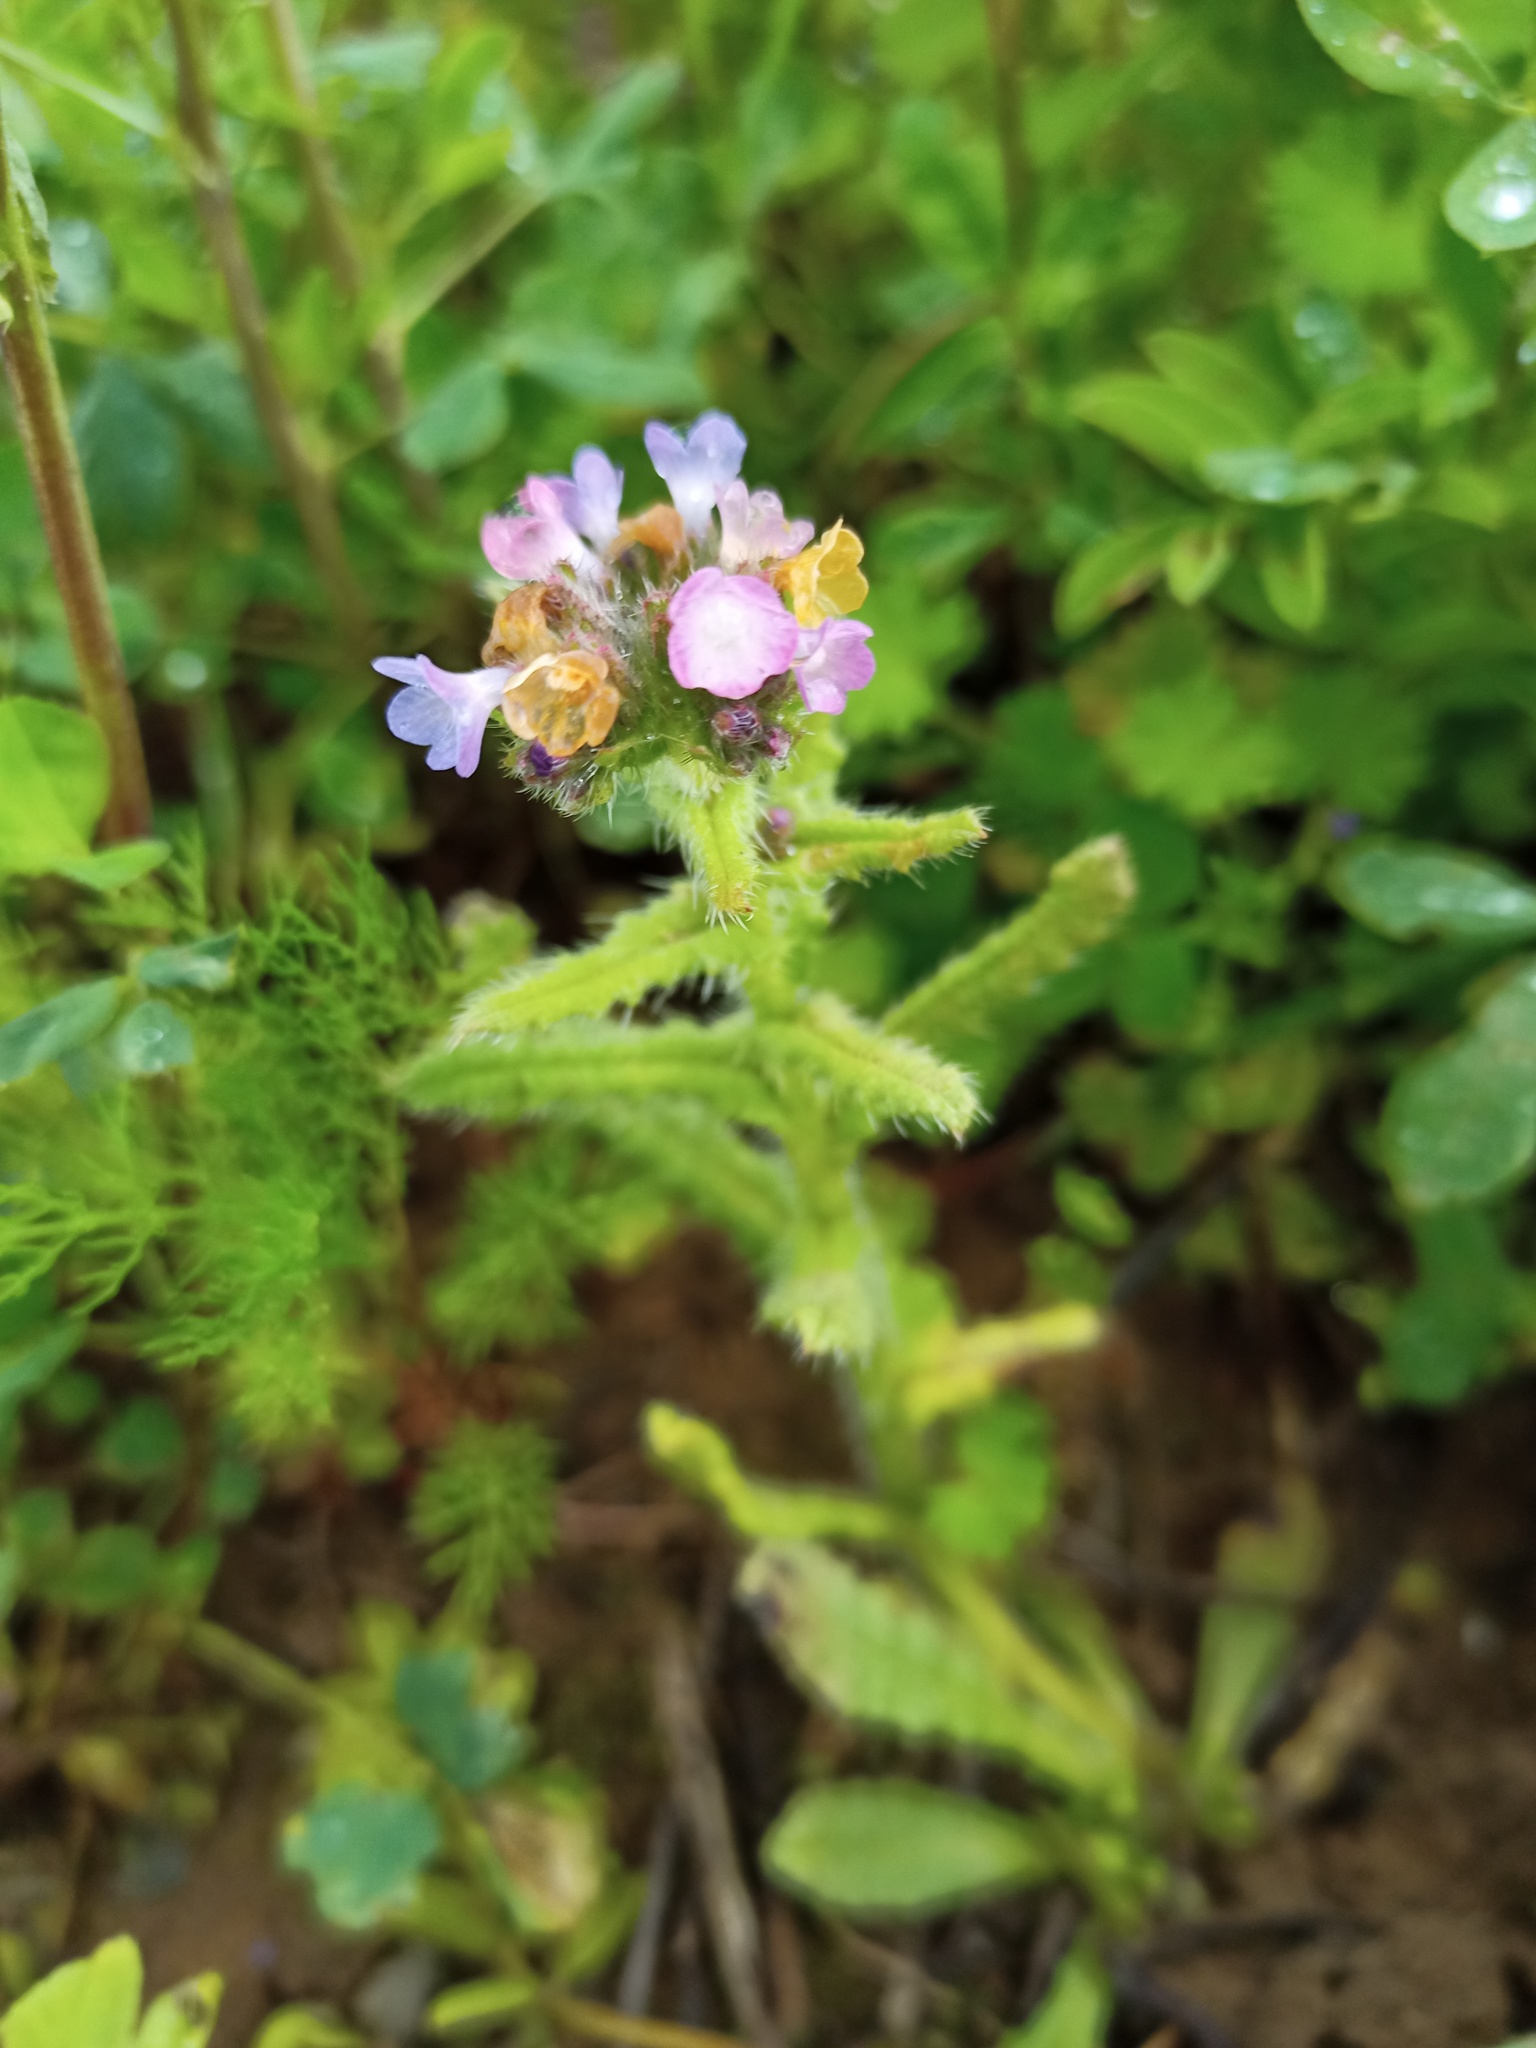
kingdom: Plantae
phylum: Tracheophyta
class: Magnoliopsida
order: Boraginales
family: Boraginaceae
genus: Lycopsis
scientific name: Lycopsis arvensis
